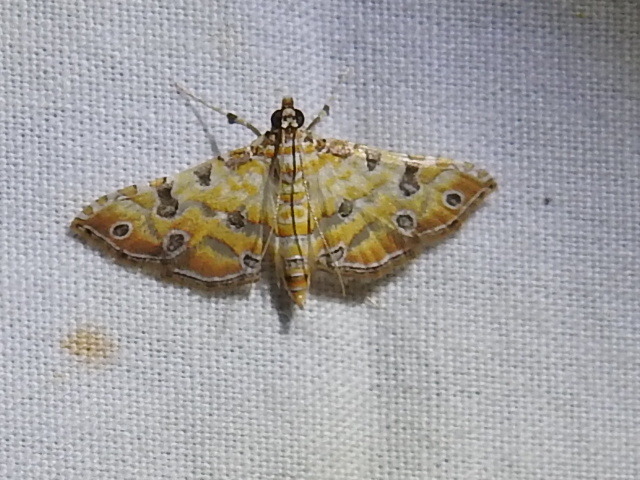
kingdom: Animalia
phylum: Arthropoda
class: Insecta
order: Lepidoptera
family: Crambidae
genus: Ommatospila
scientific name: Ommatospila narcaeusalis
